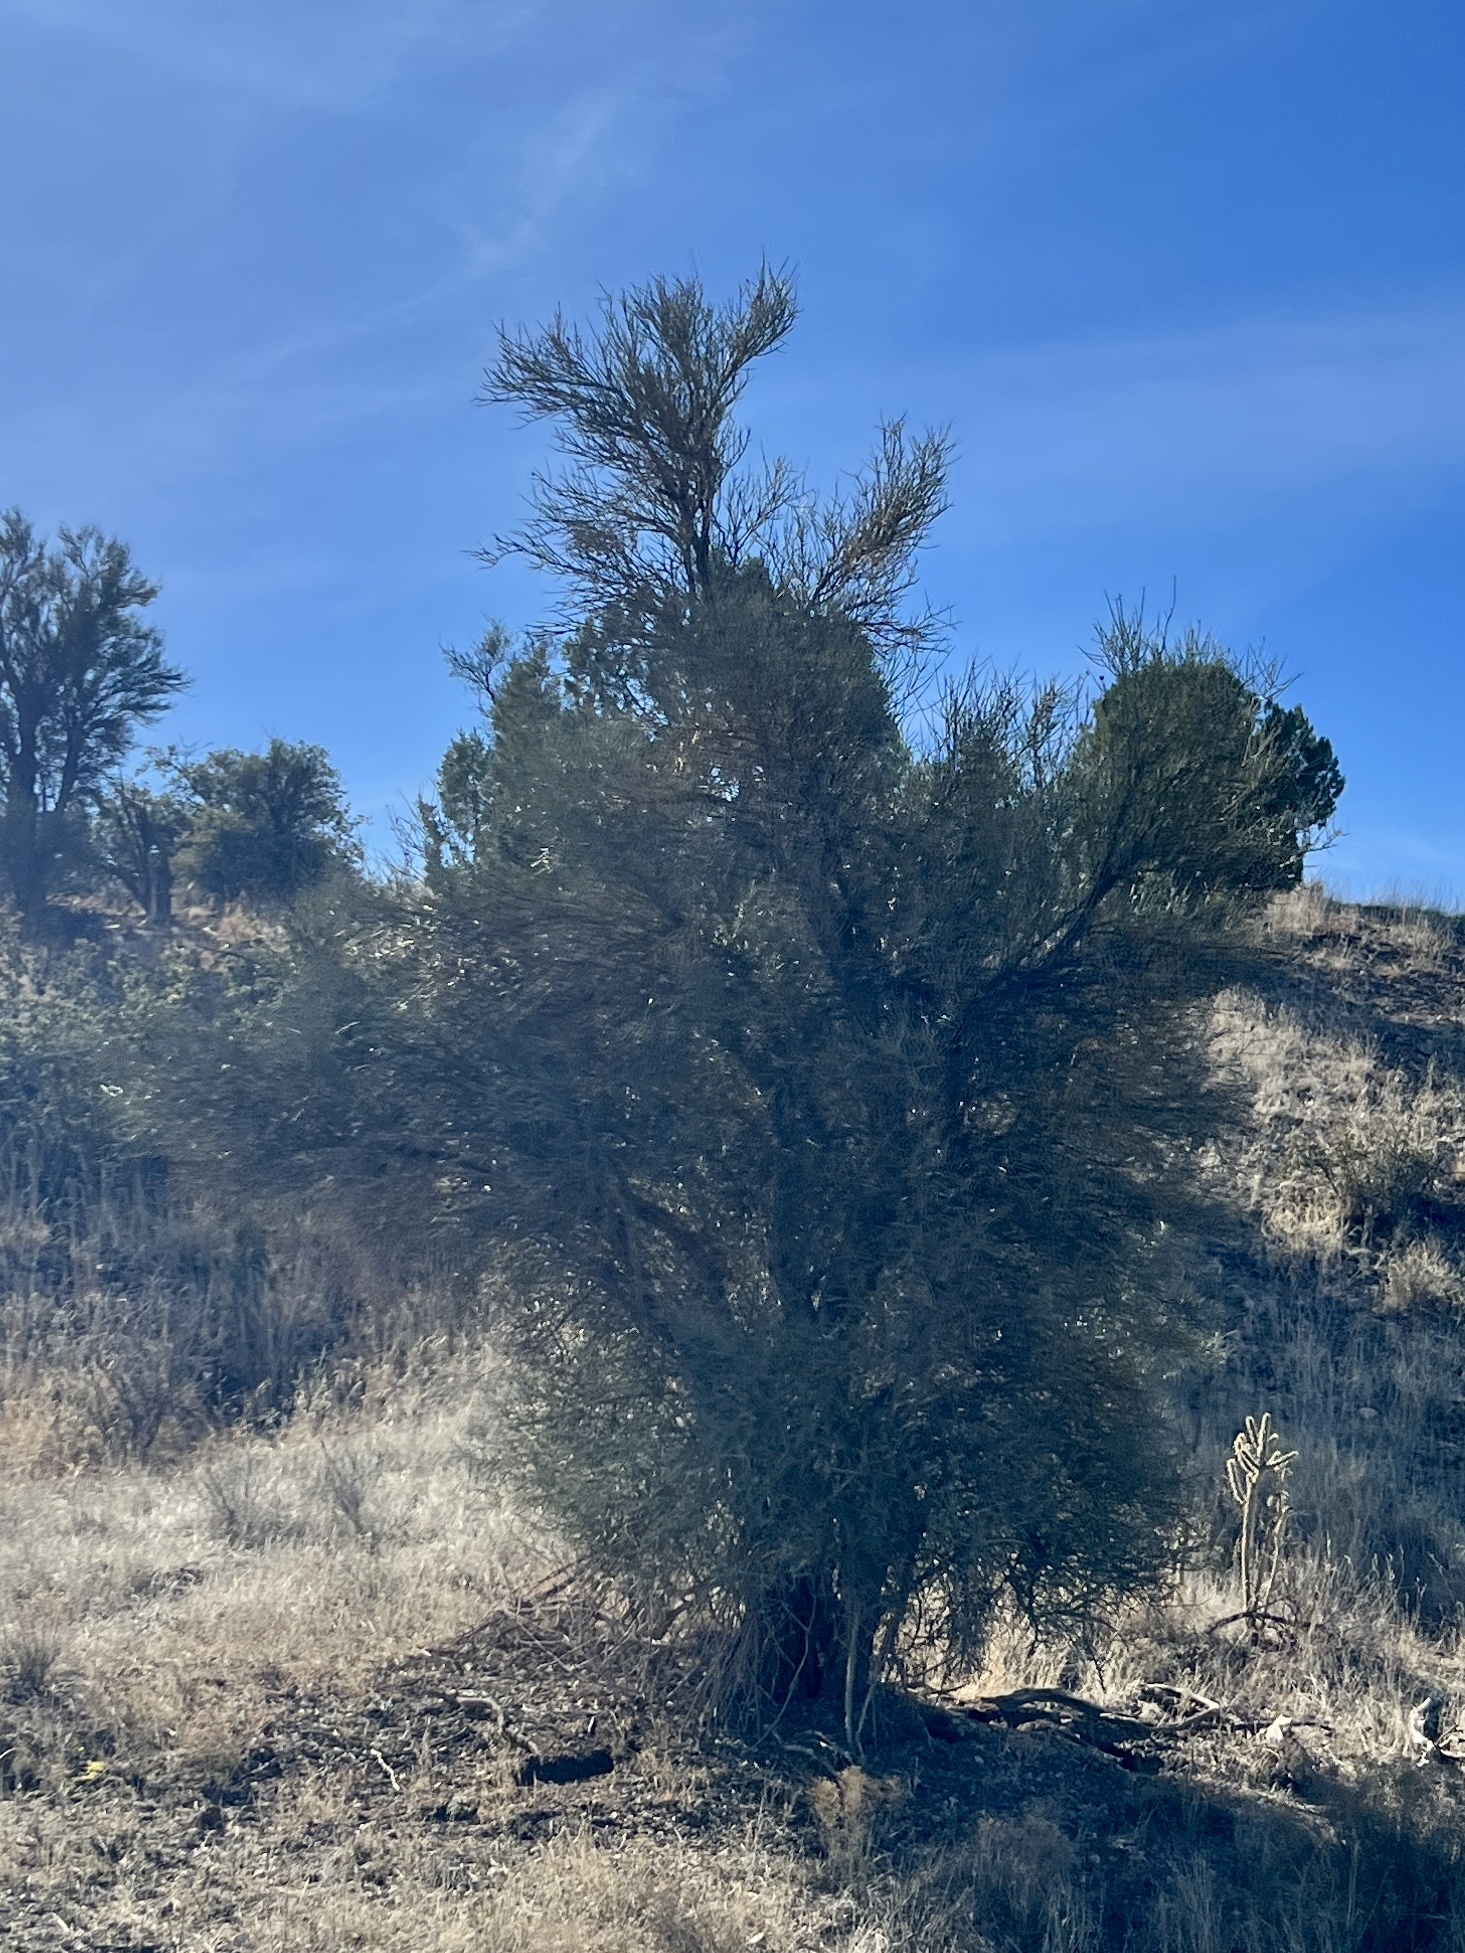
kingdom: Plantae
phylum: Tracheophyta
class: Magnoliopsida
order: Celastrales
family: Celastraceae
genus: Canotia
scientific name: Canotia holacantha
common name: Crucifixion thorns
